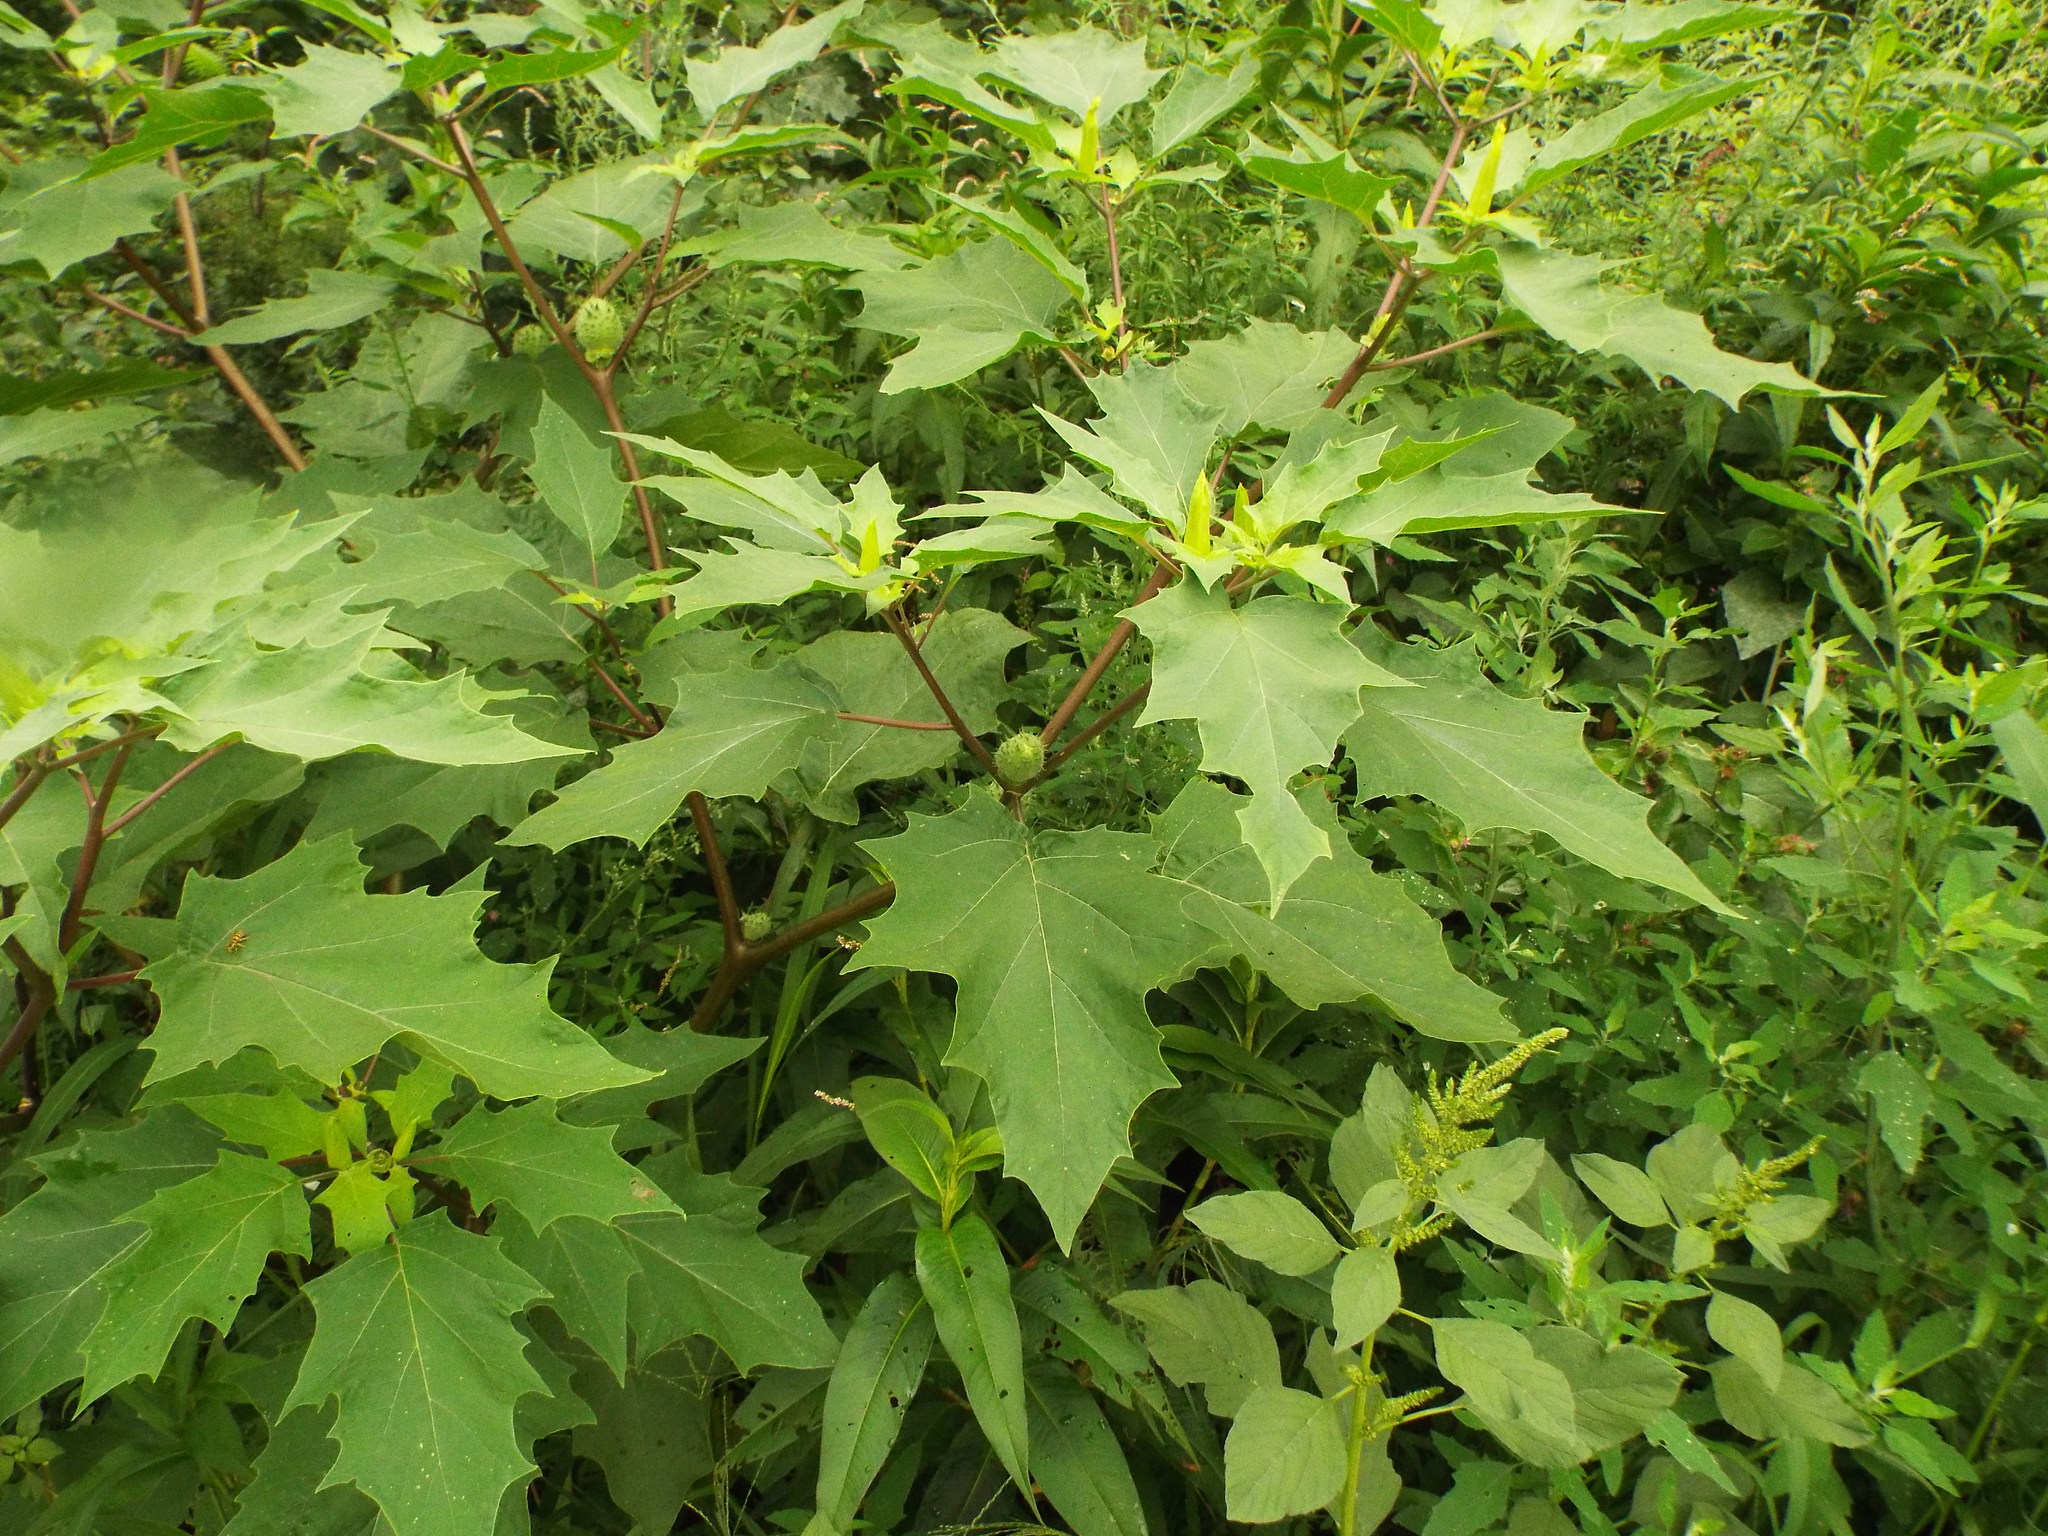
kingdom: Plantae
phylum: Tracheophyta
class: Magnoliopsida
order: Solanales
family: Solanaceae
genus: Datura
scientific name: Datura stramonium
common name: Thorn-apple
